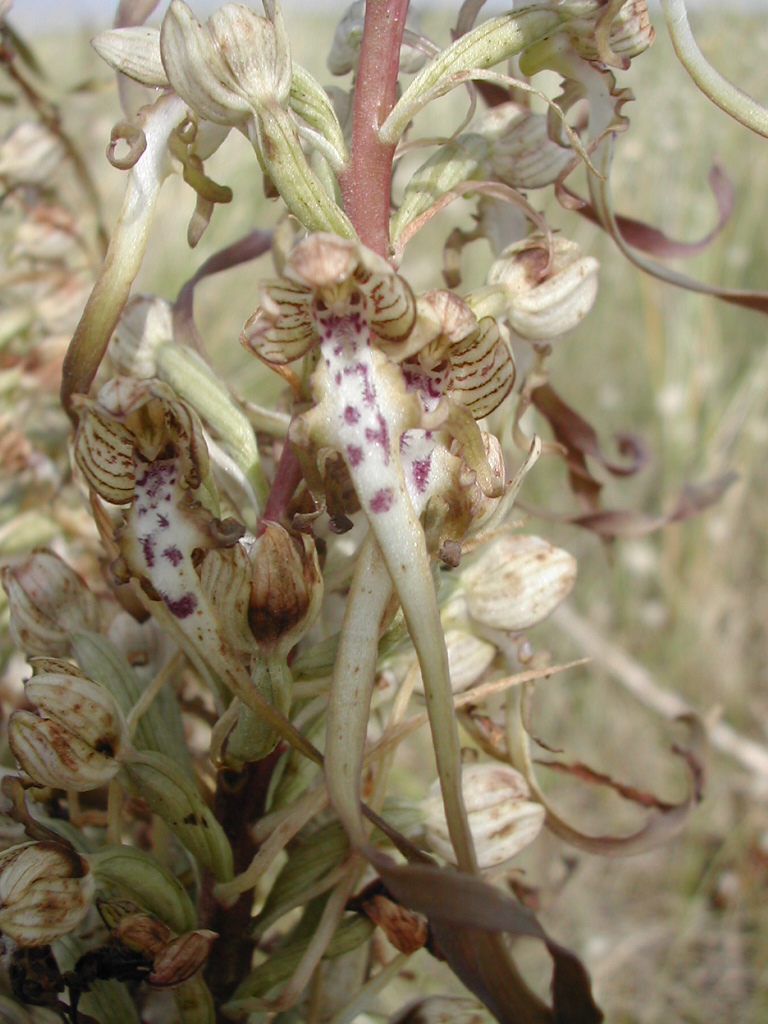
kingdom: Plantae
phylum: Tracheophyta
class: Liliopsida
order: Asparagales
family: Orchidaceae
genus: Himantoglossum
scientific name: Himantoglossum hircinum
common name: Lizard orchid
